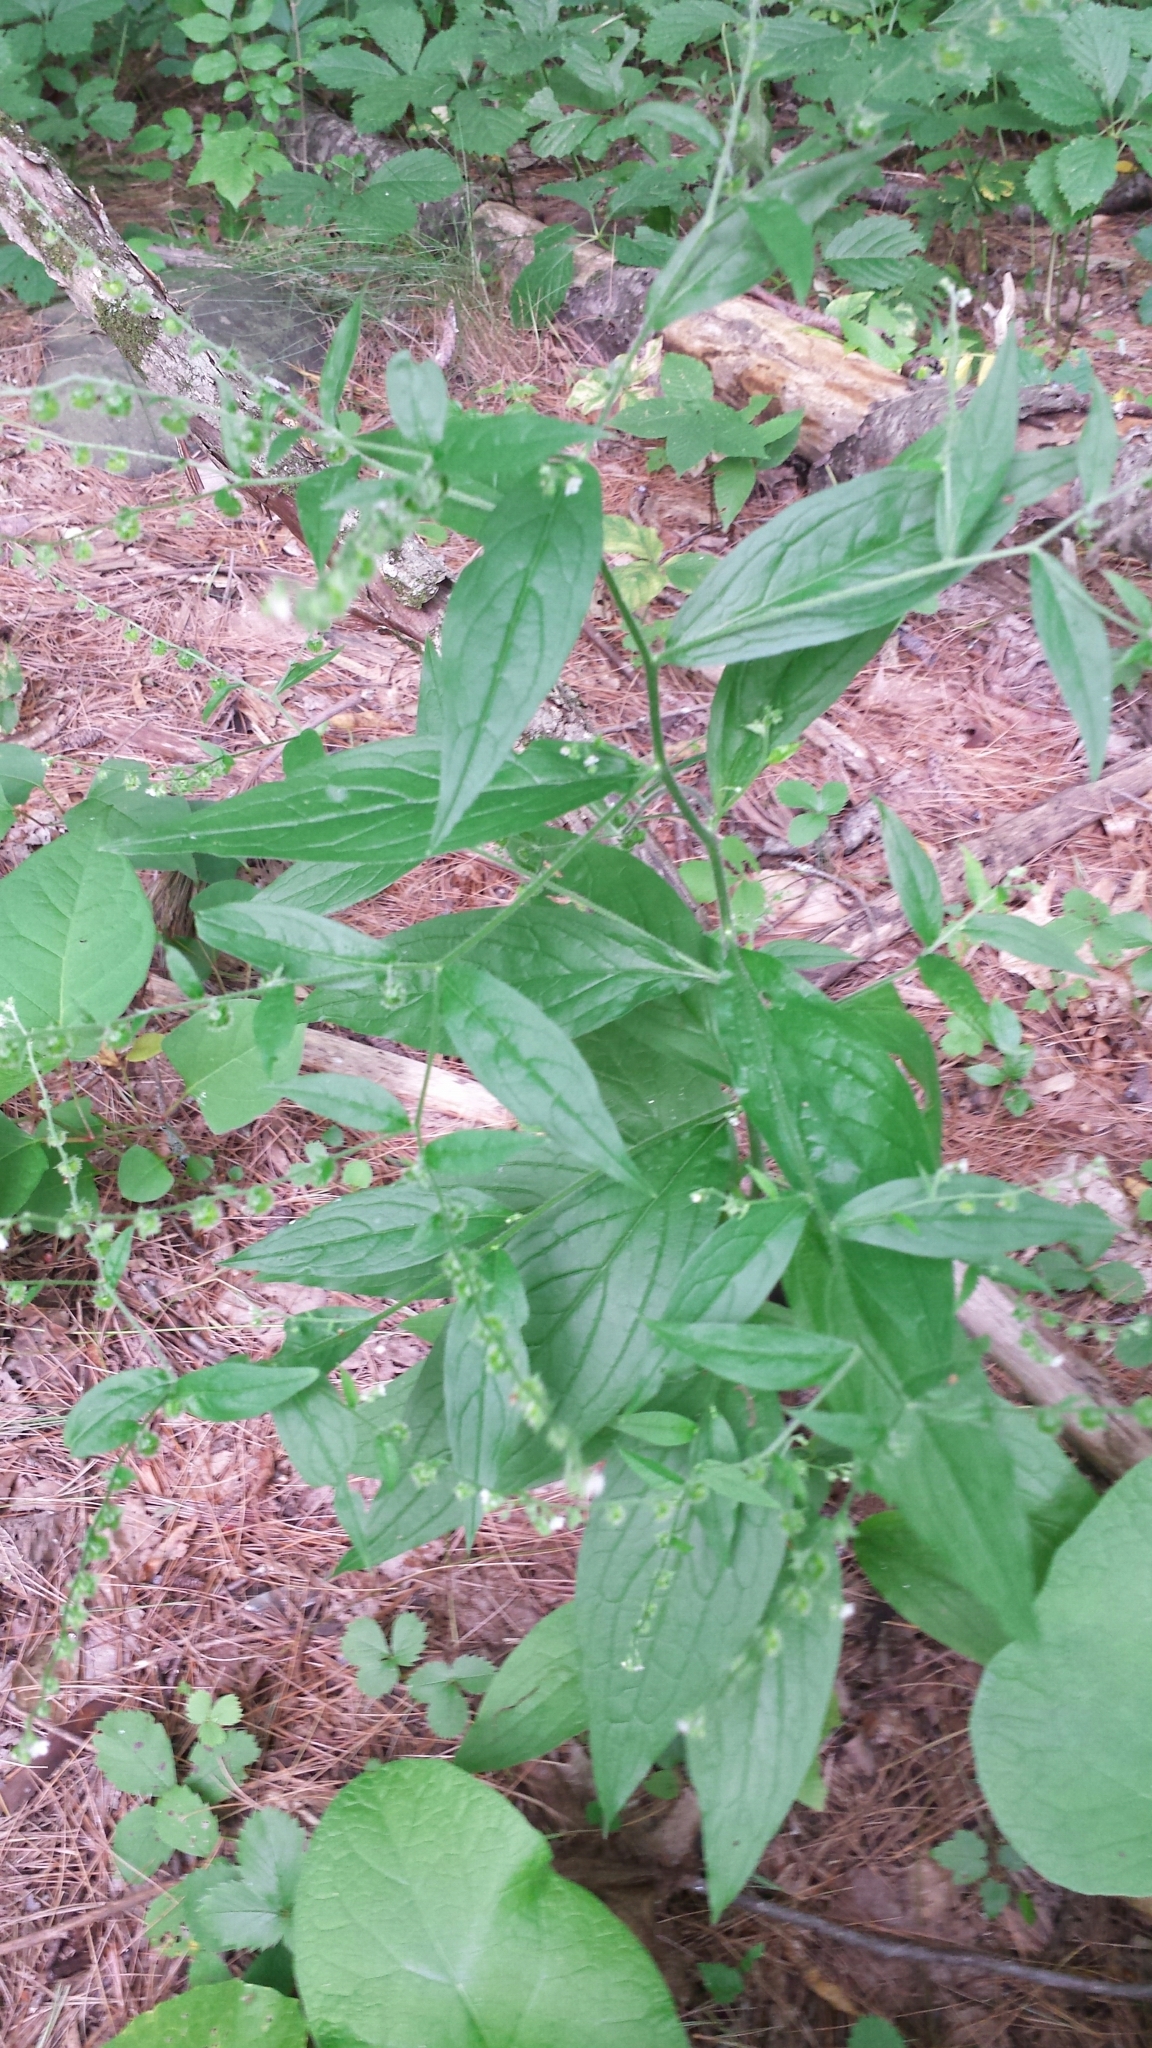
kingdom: Plantae
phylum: Tracheophyta
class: Magnoliopsida
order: Boraginales
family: Boraginaceae
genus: Hackelia
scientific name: Hackelia virginiana
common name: Beggar's-lice
